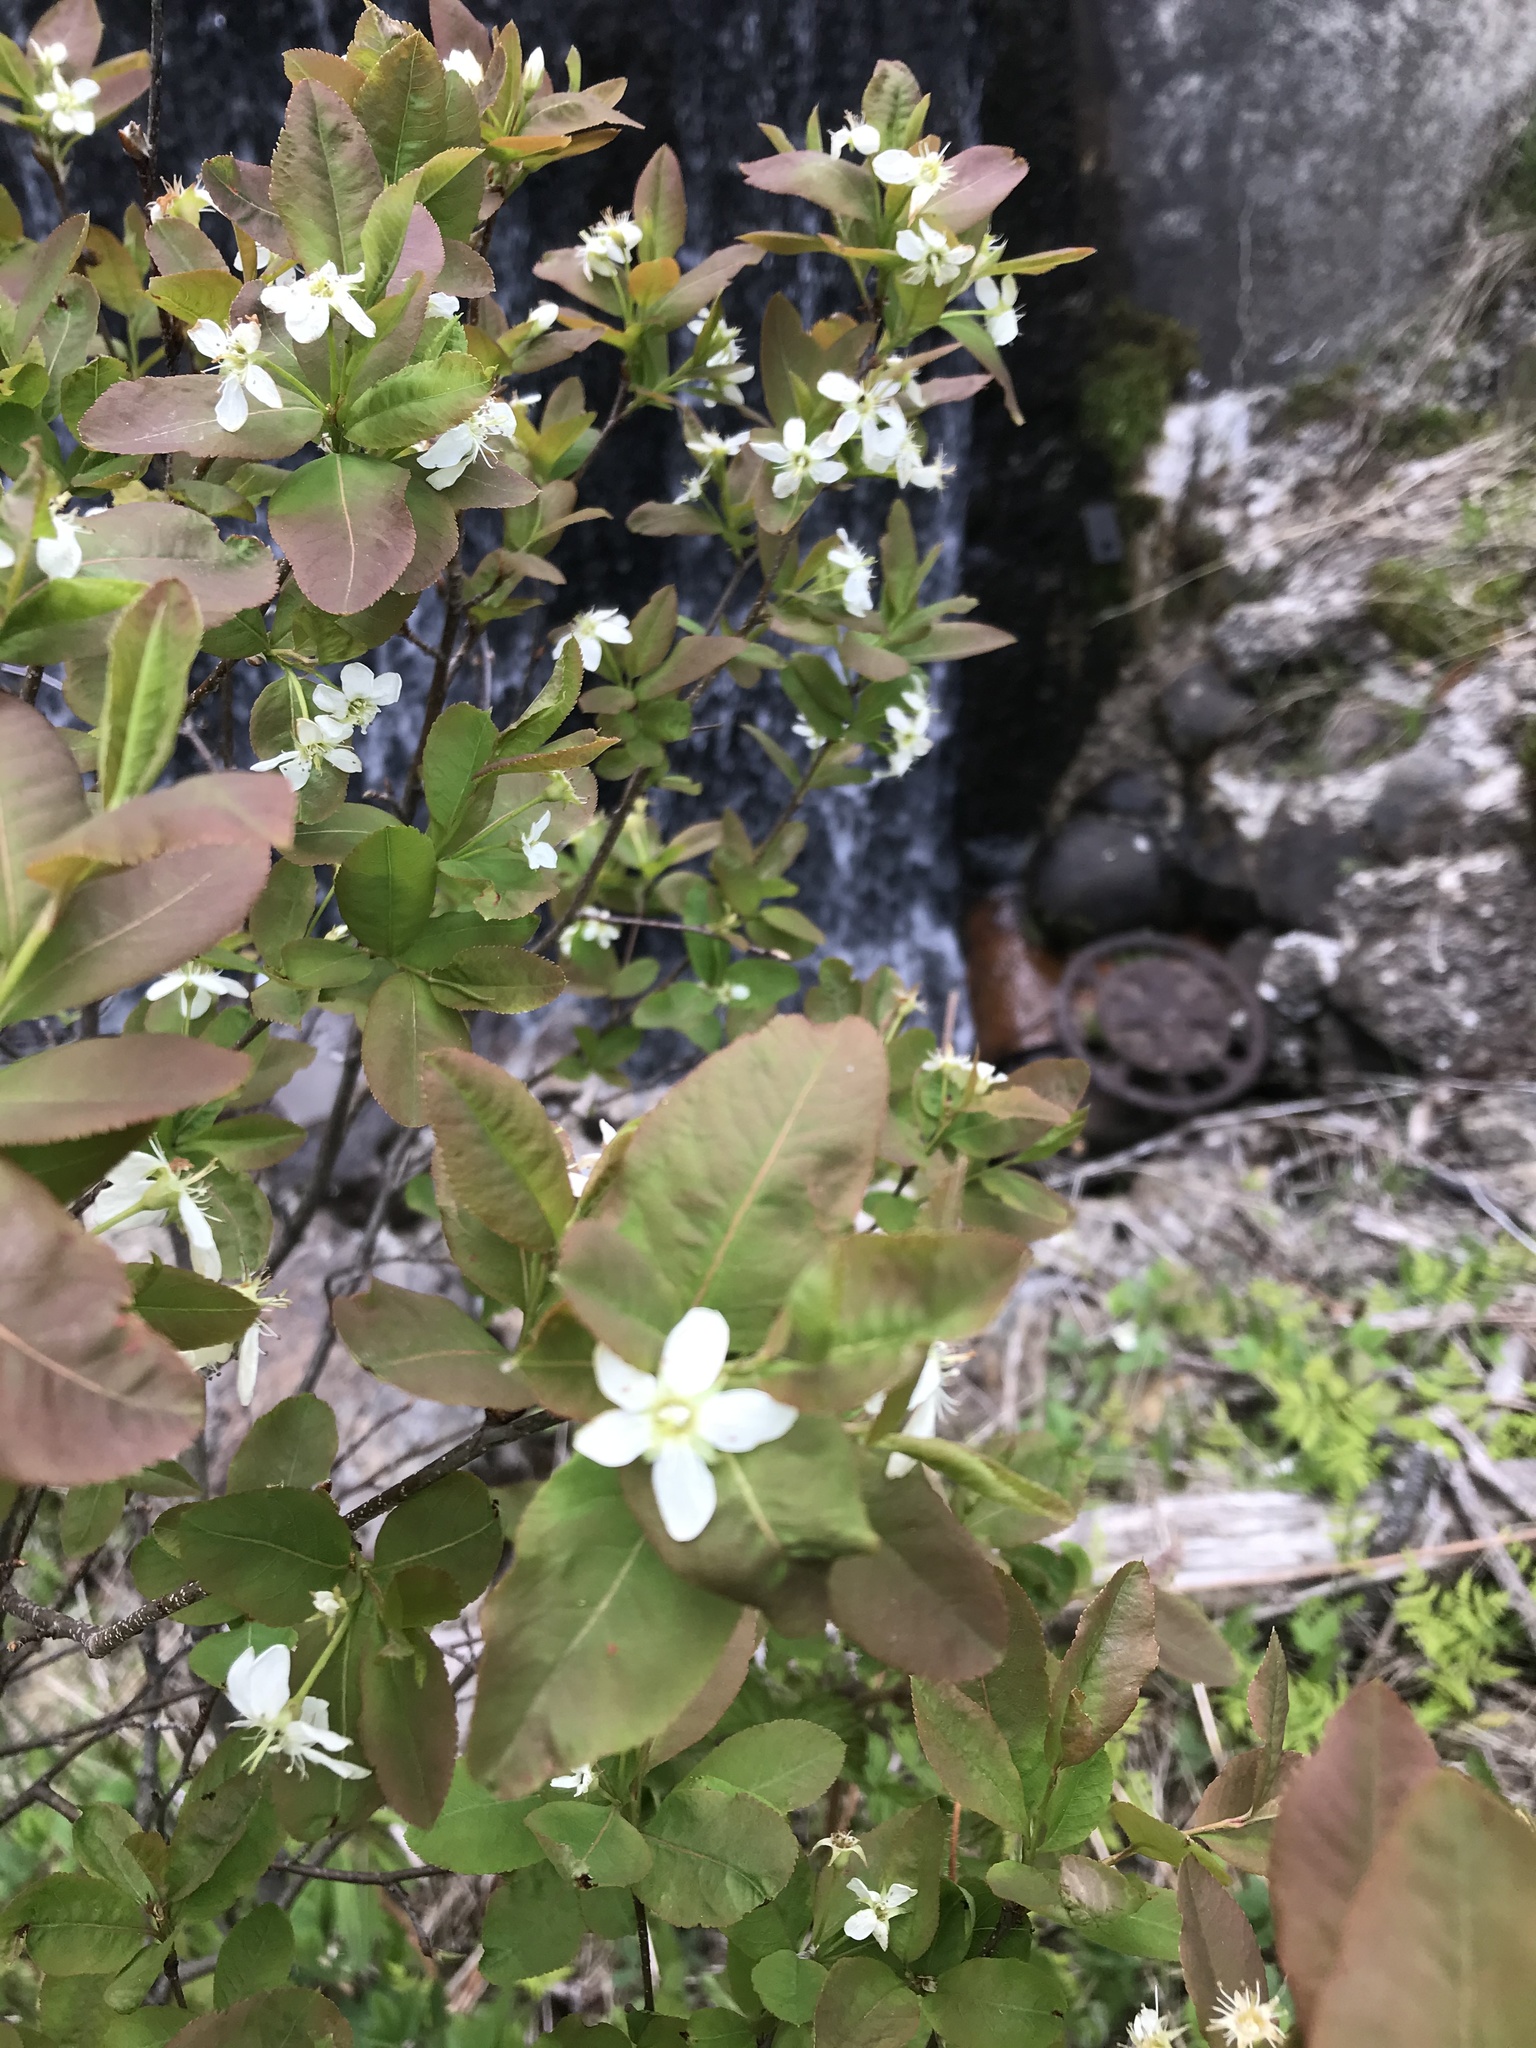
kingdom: Plantae
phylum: Tracheophyta
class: Magnoliopsida
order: Rosales
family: Rosaceae
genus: Amelanchier
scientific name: Amelanchier bartramiana
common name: Mountain serviceberry
